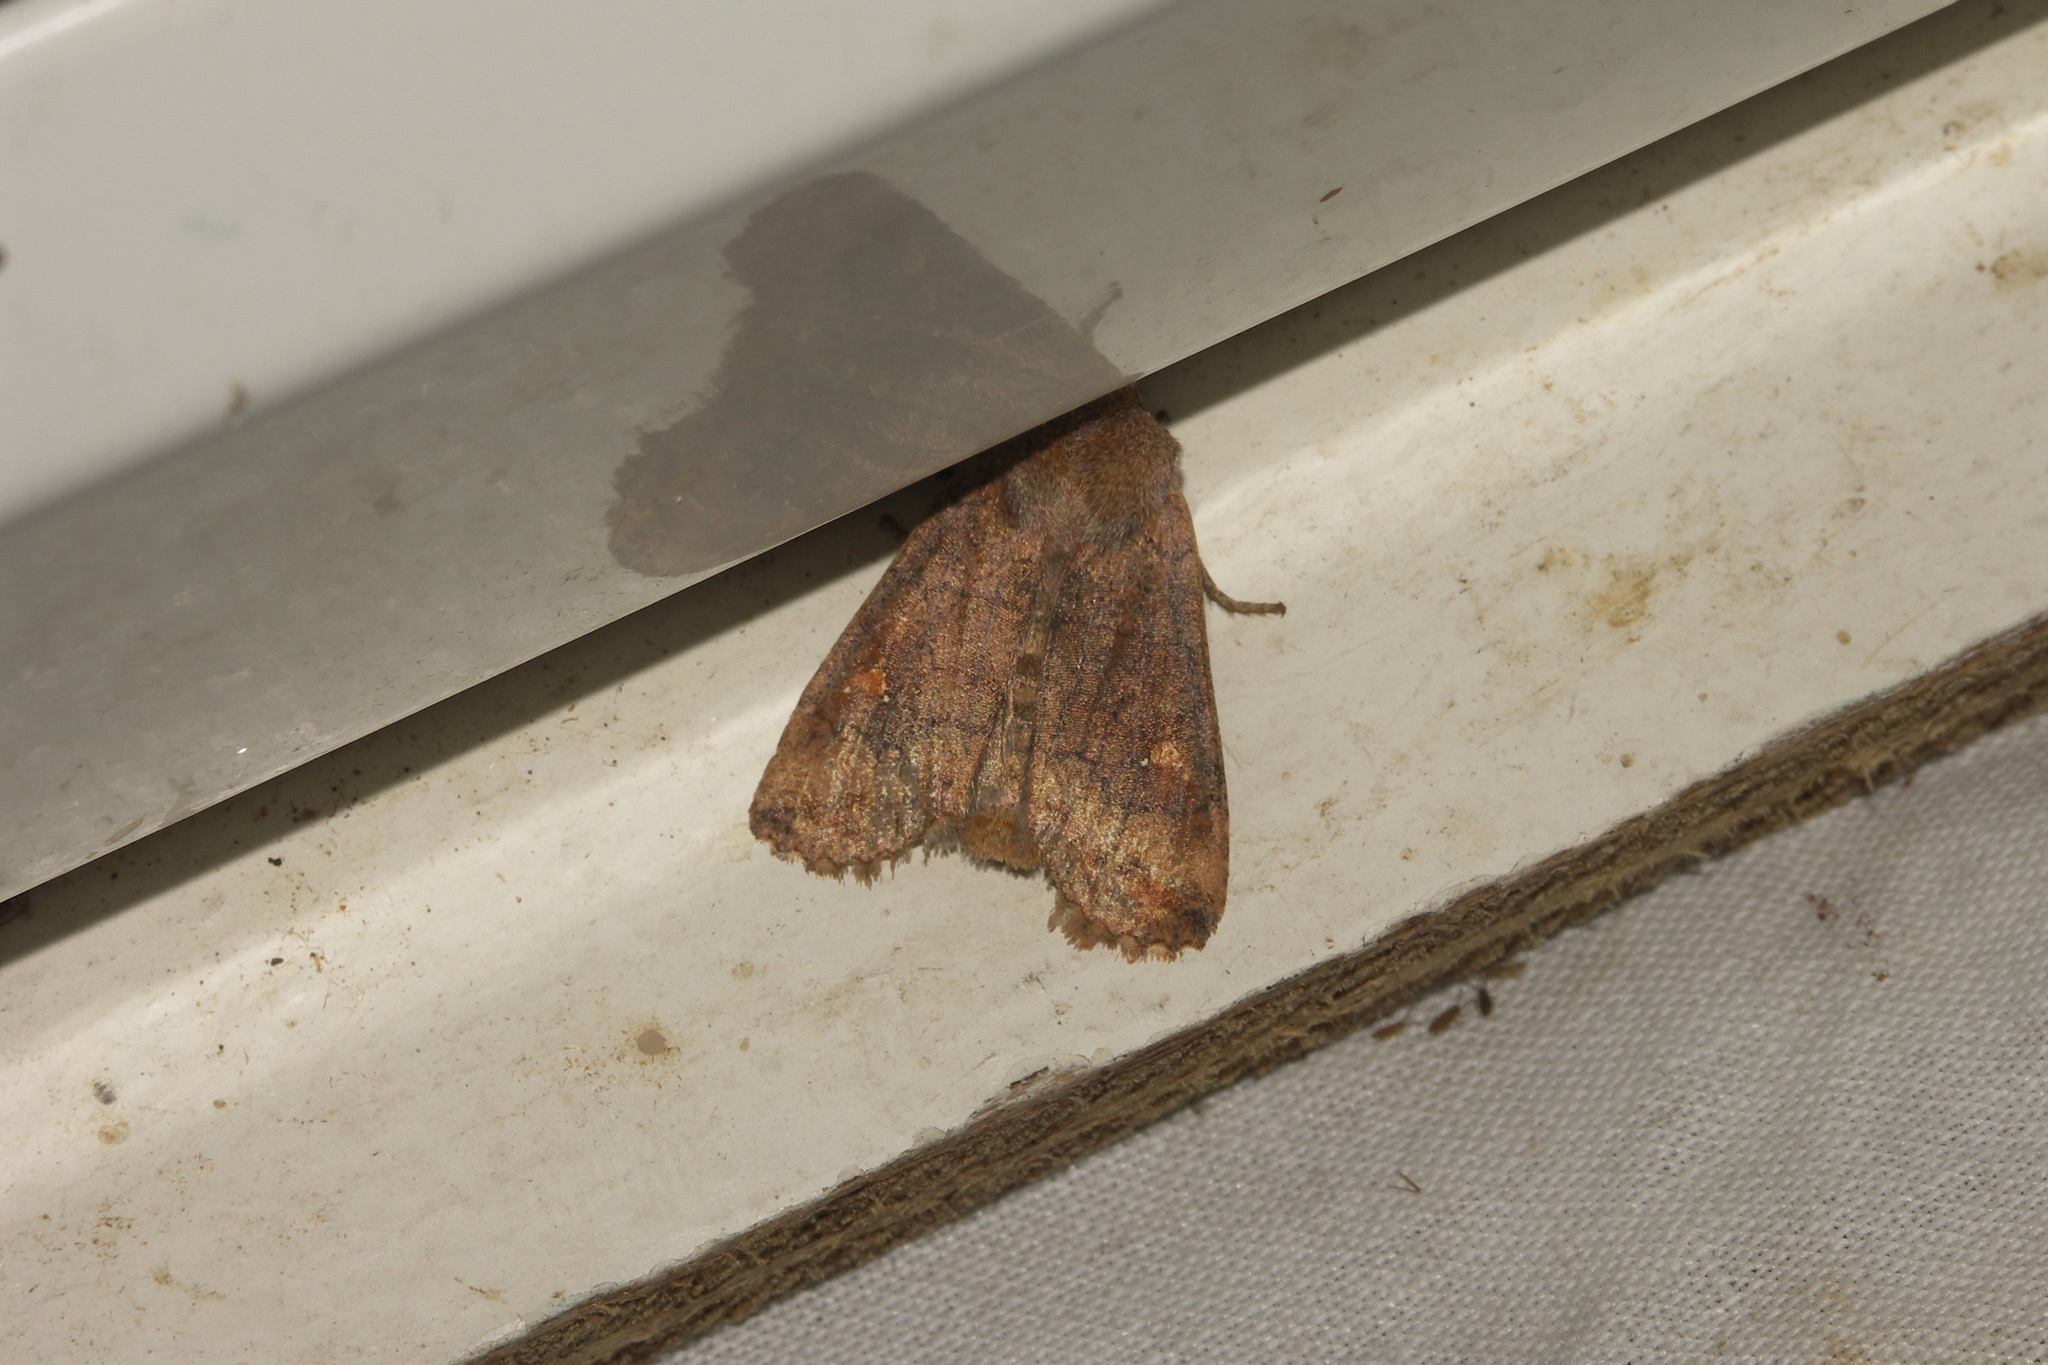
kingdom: Animalia
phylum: Arthropoda
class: Insecta
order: Lepidoptera
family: Noctuidae
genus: Eupsilia
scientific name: Eupsilia transversa
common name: Satellite
